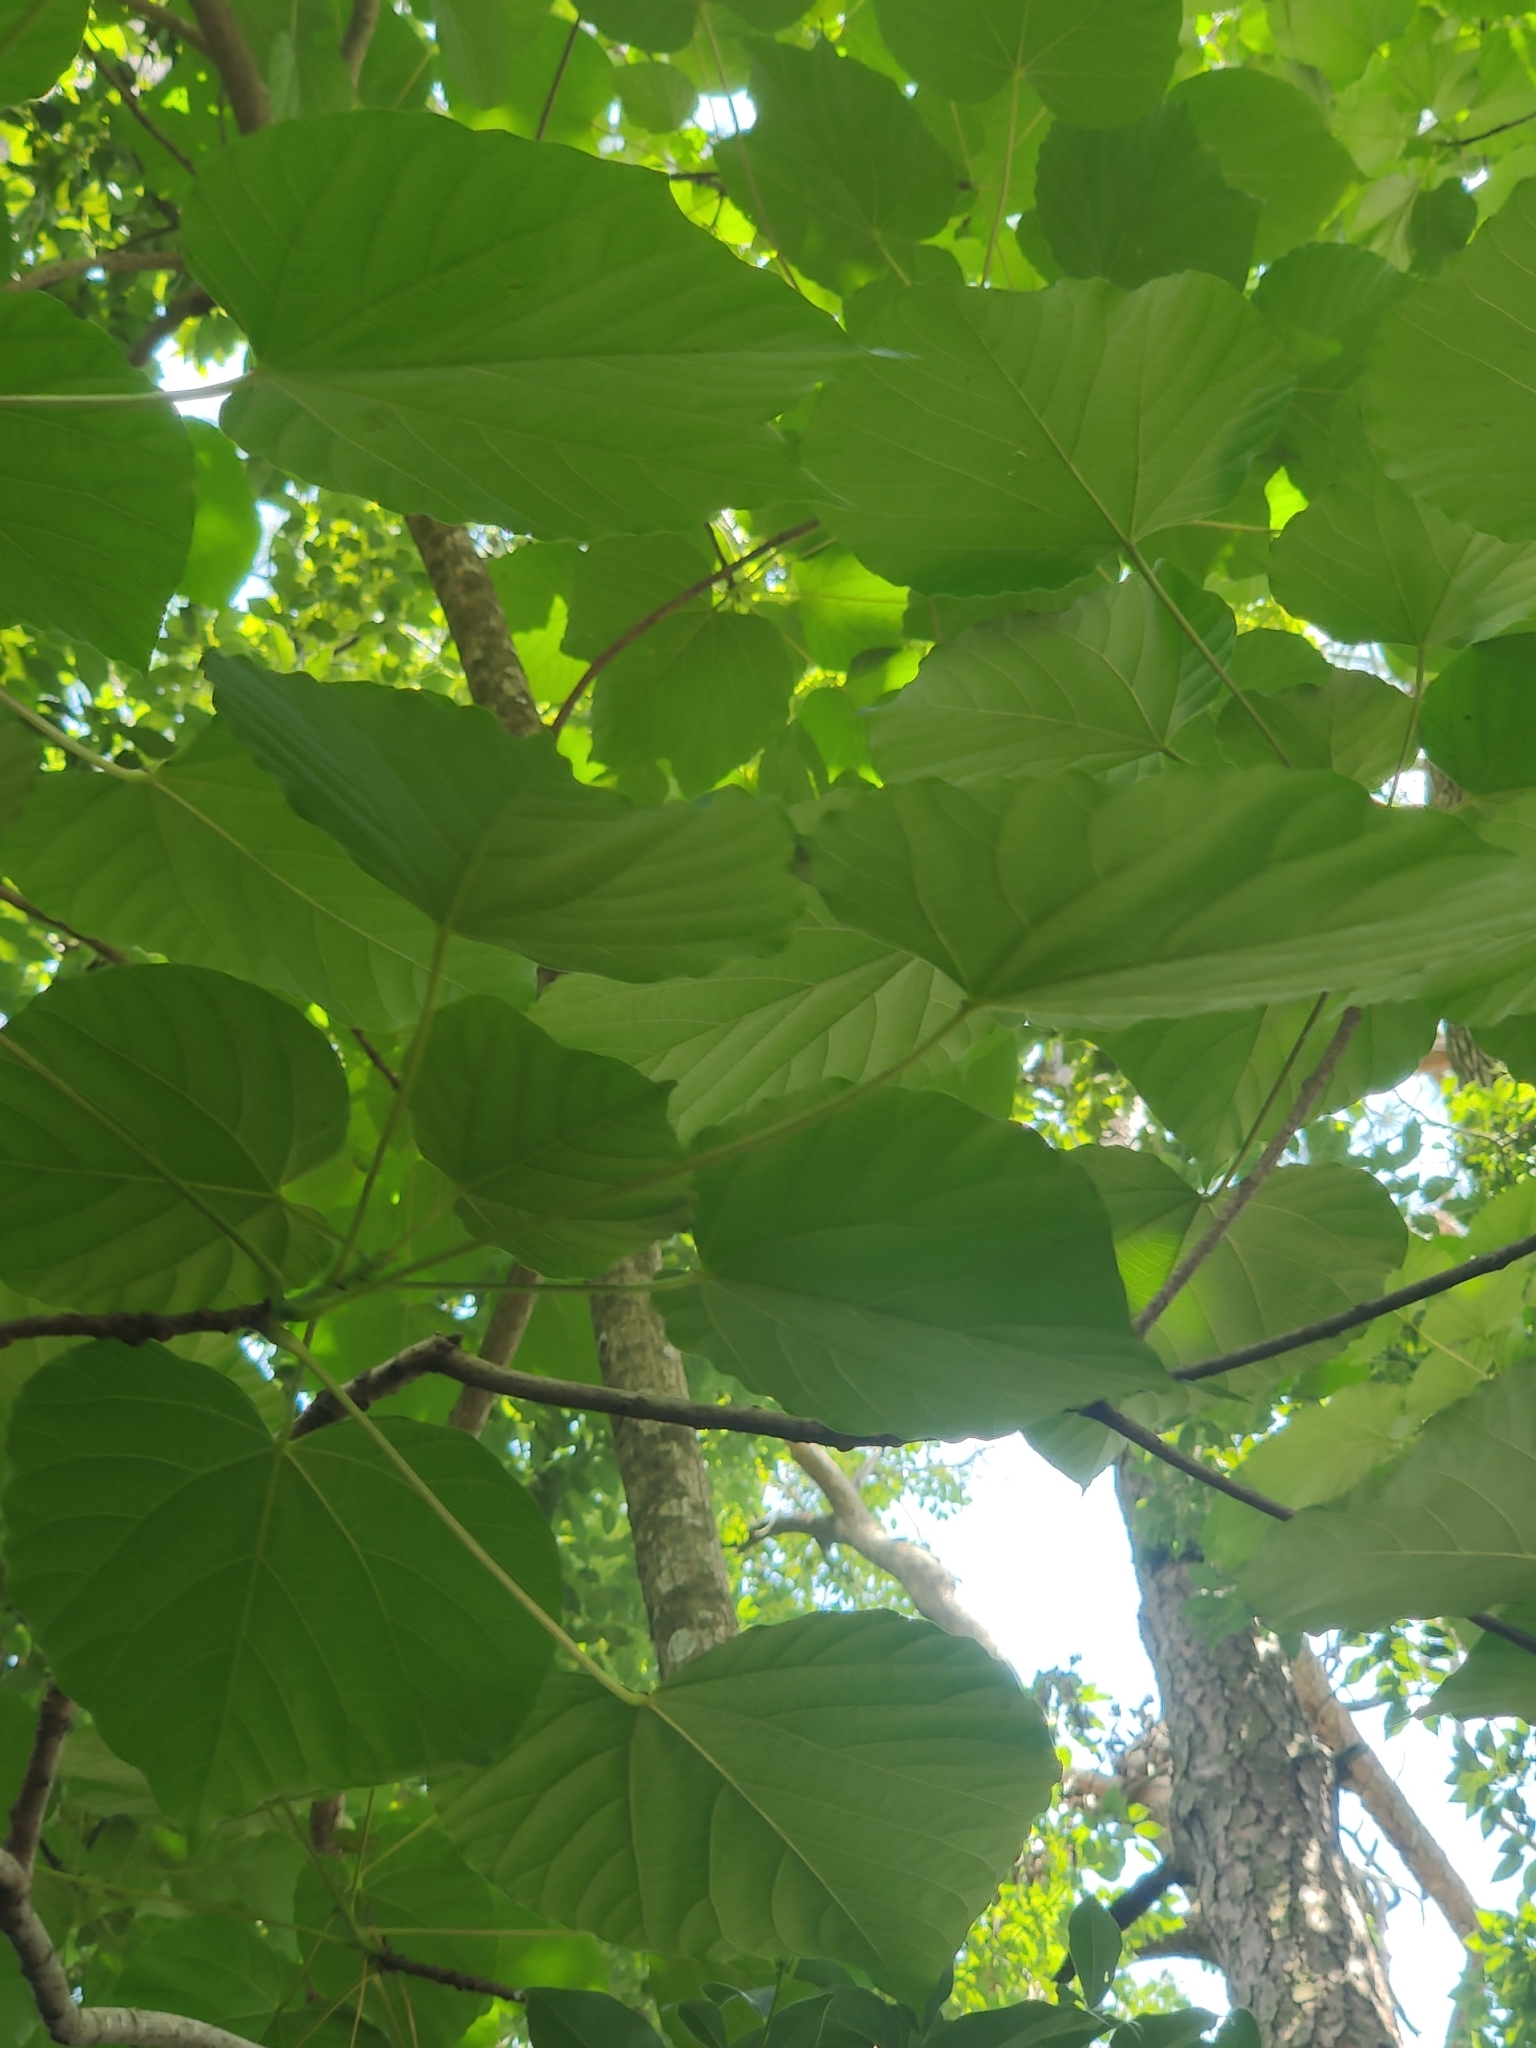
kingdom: Plantae
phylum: Tracheophyta
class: Magnoliopsida
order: Malpighiales
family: Euphorbiaceae
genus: Vernicia
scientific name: Vernicia fordii
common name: Tungoil tree
